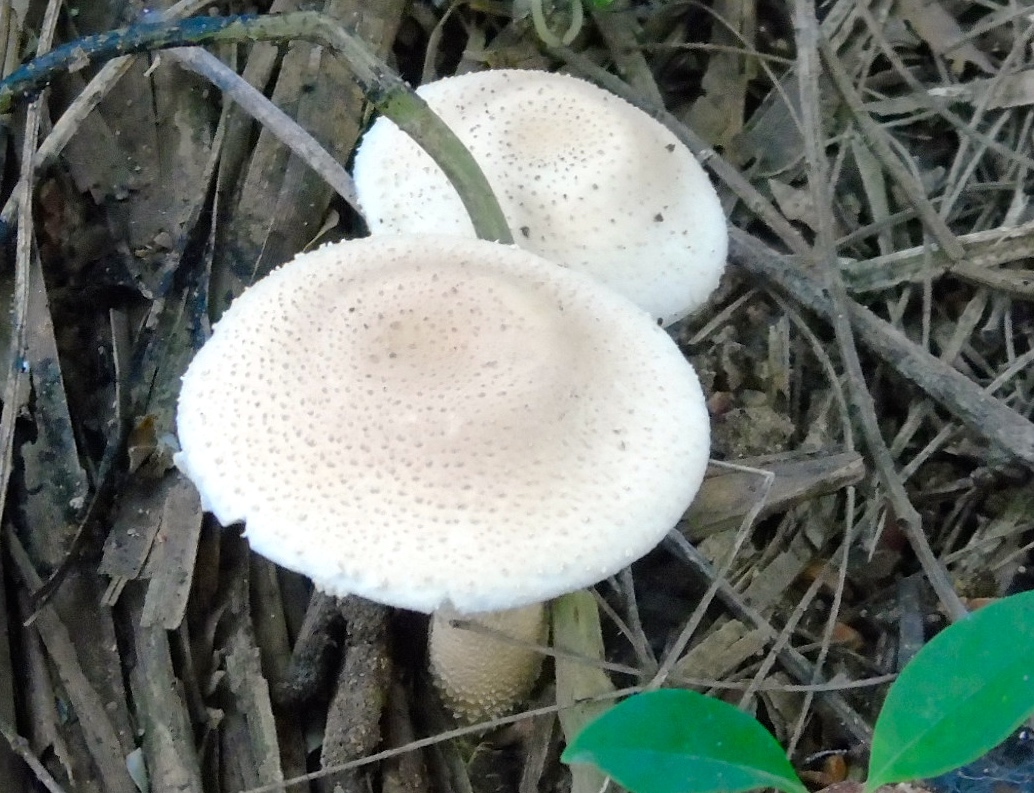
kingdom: Fungi
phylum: Basidiomycota
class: Agaricomycetes
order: Agaricales
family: Amanitaceae
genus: Amanita
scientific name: Amanita
